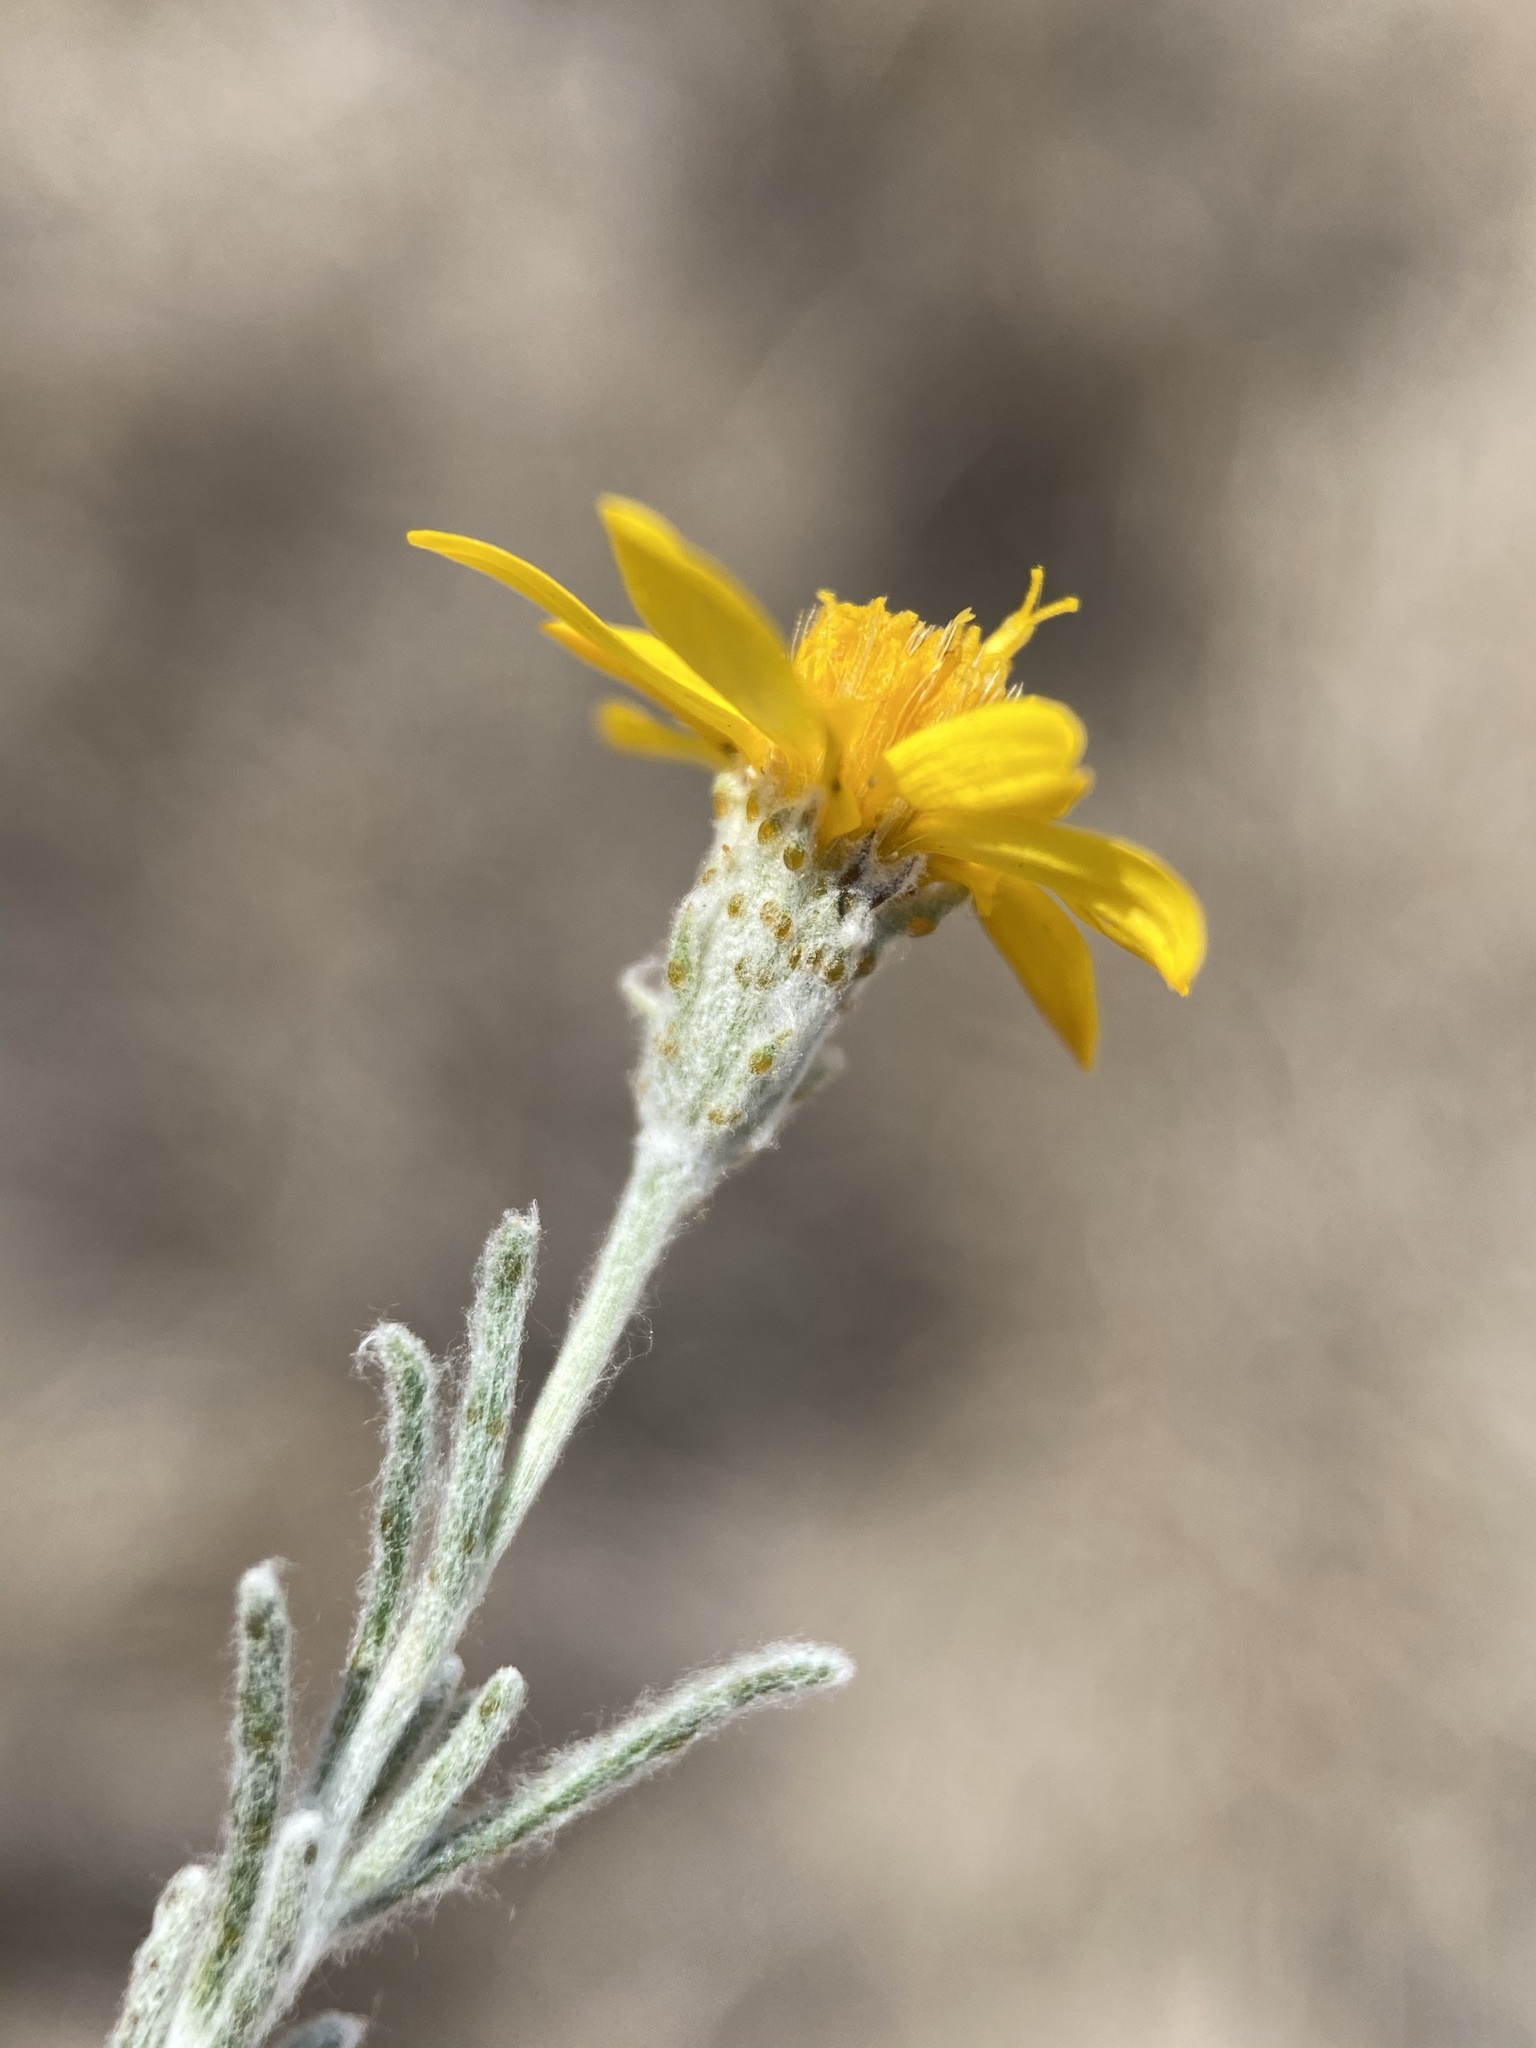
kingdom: Plantae
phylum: Tracheophyta
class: Magnoliopsida
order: Asterales
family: Asteraceae
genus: Thymophylla
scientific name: Thymophylla tephroleuca
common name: Ashy dogweed
